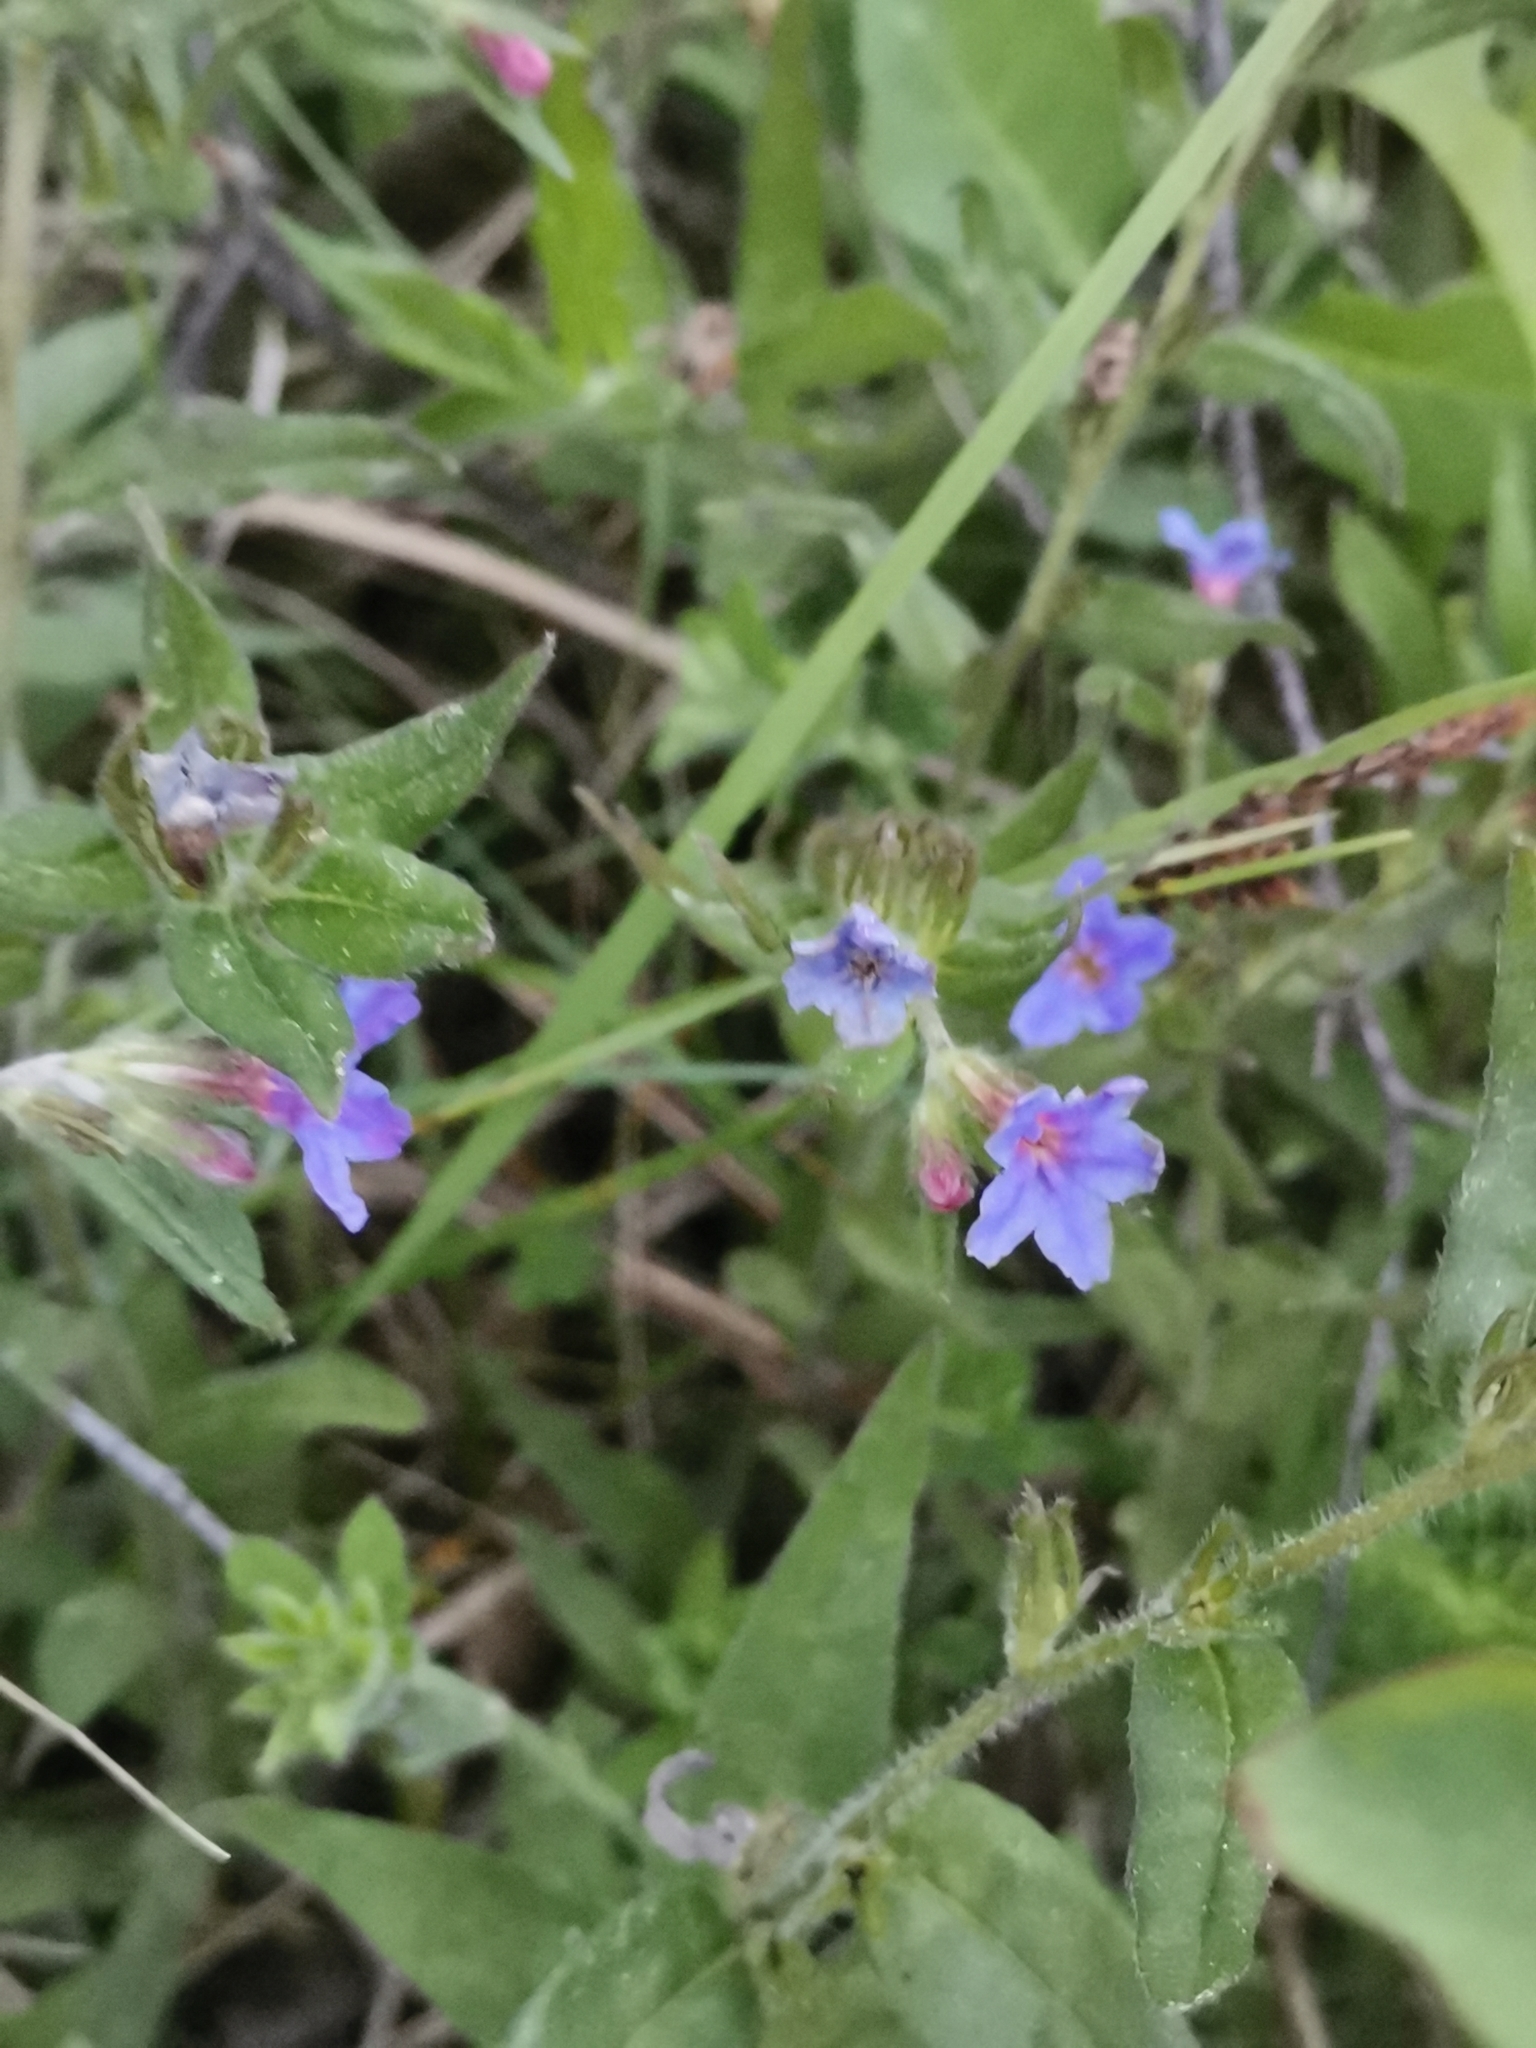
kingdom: Plantae
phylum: Tracheophyta
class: Magnoliopsida
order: Boraginales
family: Boraginaceae
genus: Aegonychon
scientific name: Aegonychon purpurocaeruleum
